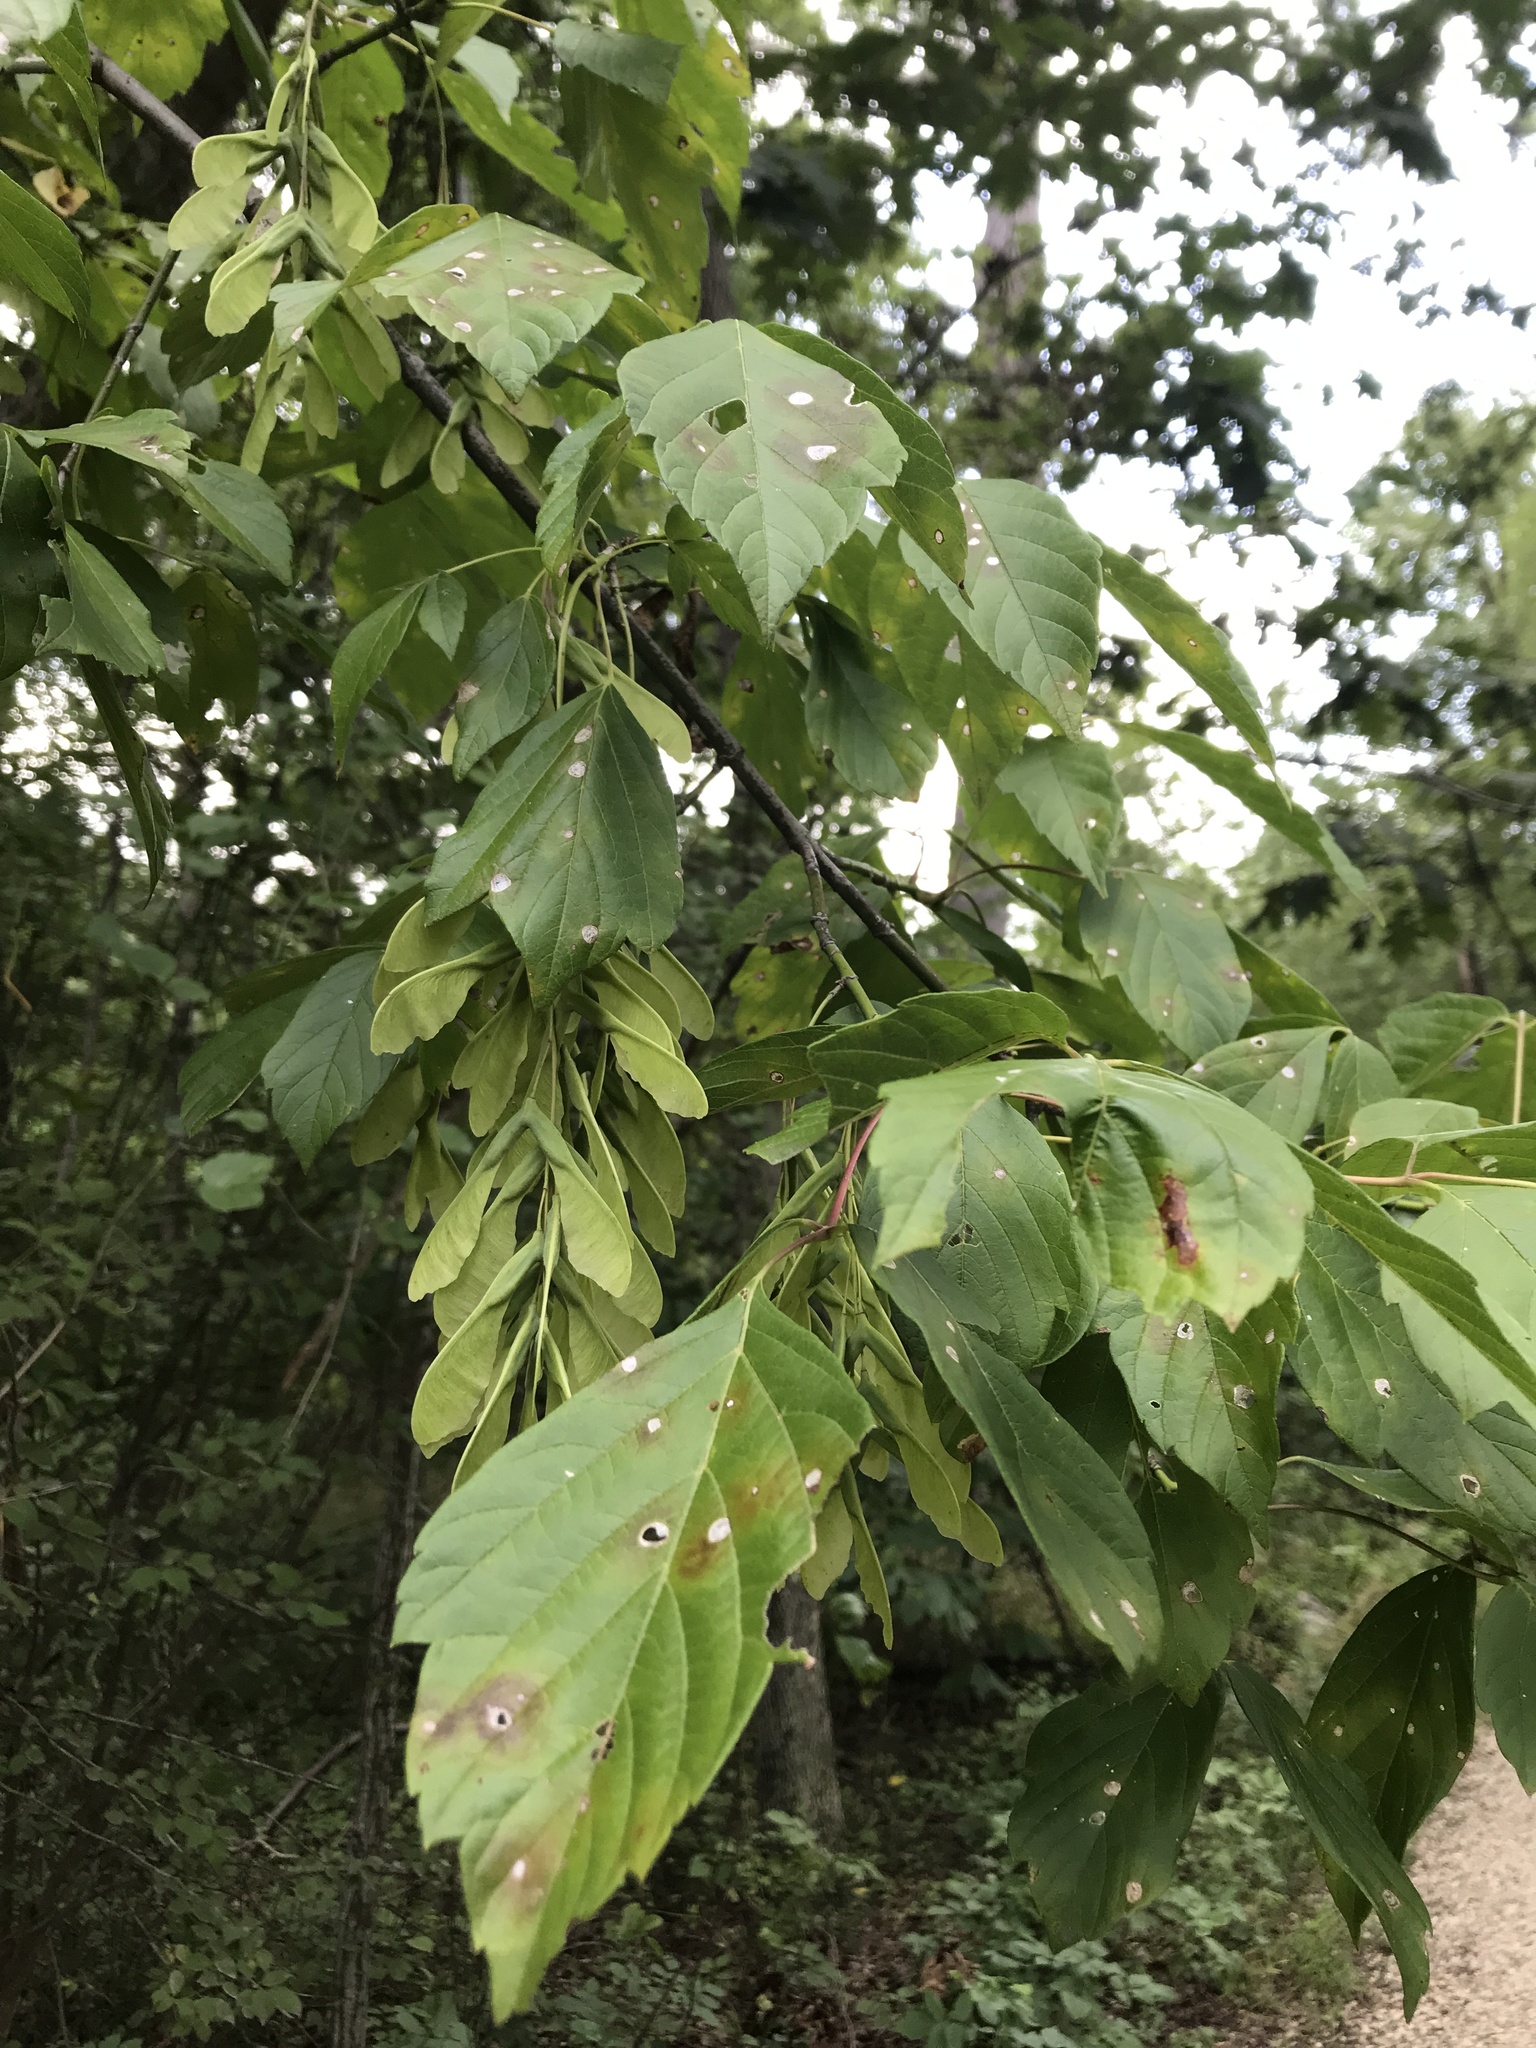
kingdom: Plantae
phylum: Tracheophyta
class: Magnoliopsida
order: Sapindales
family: Sapindaceae
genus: Acer
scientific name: Acer negundo
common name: Ashleaf maple
